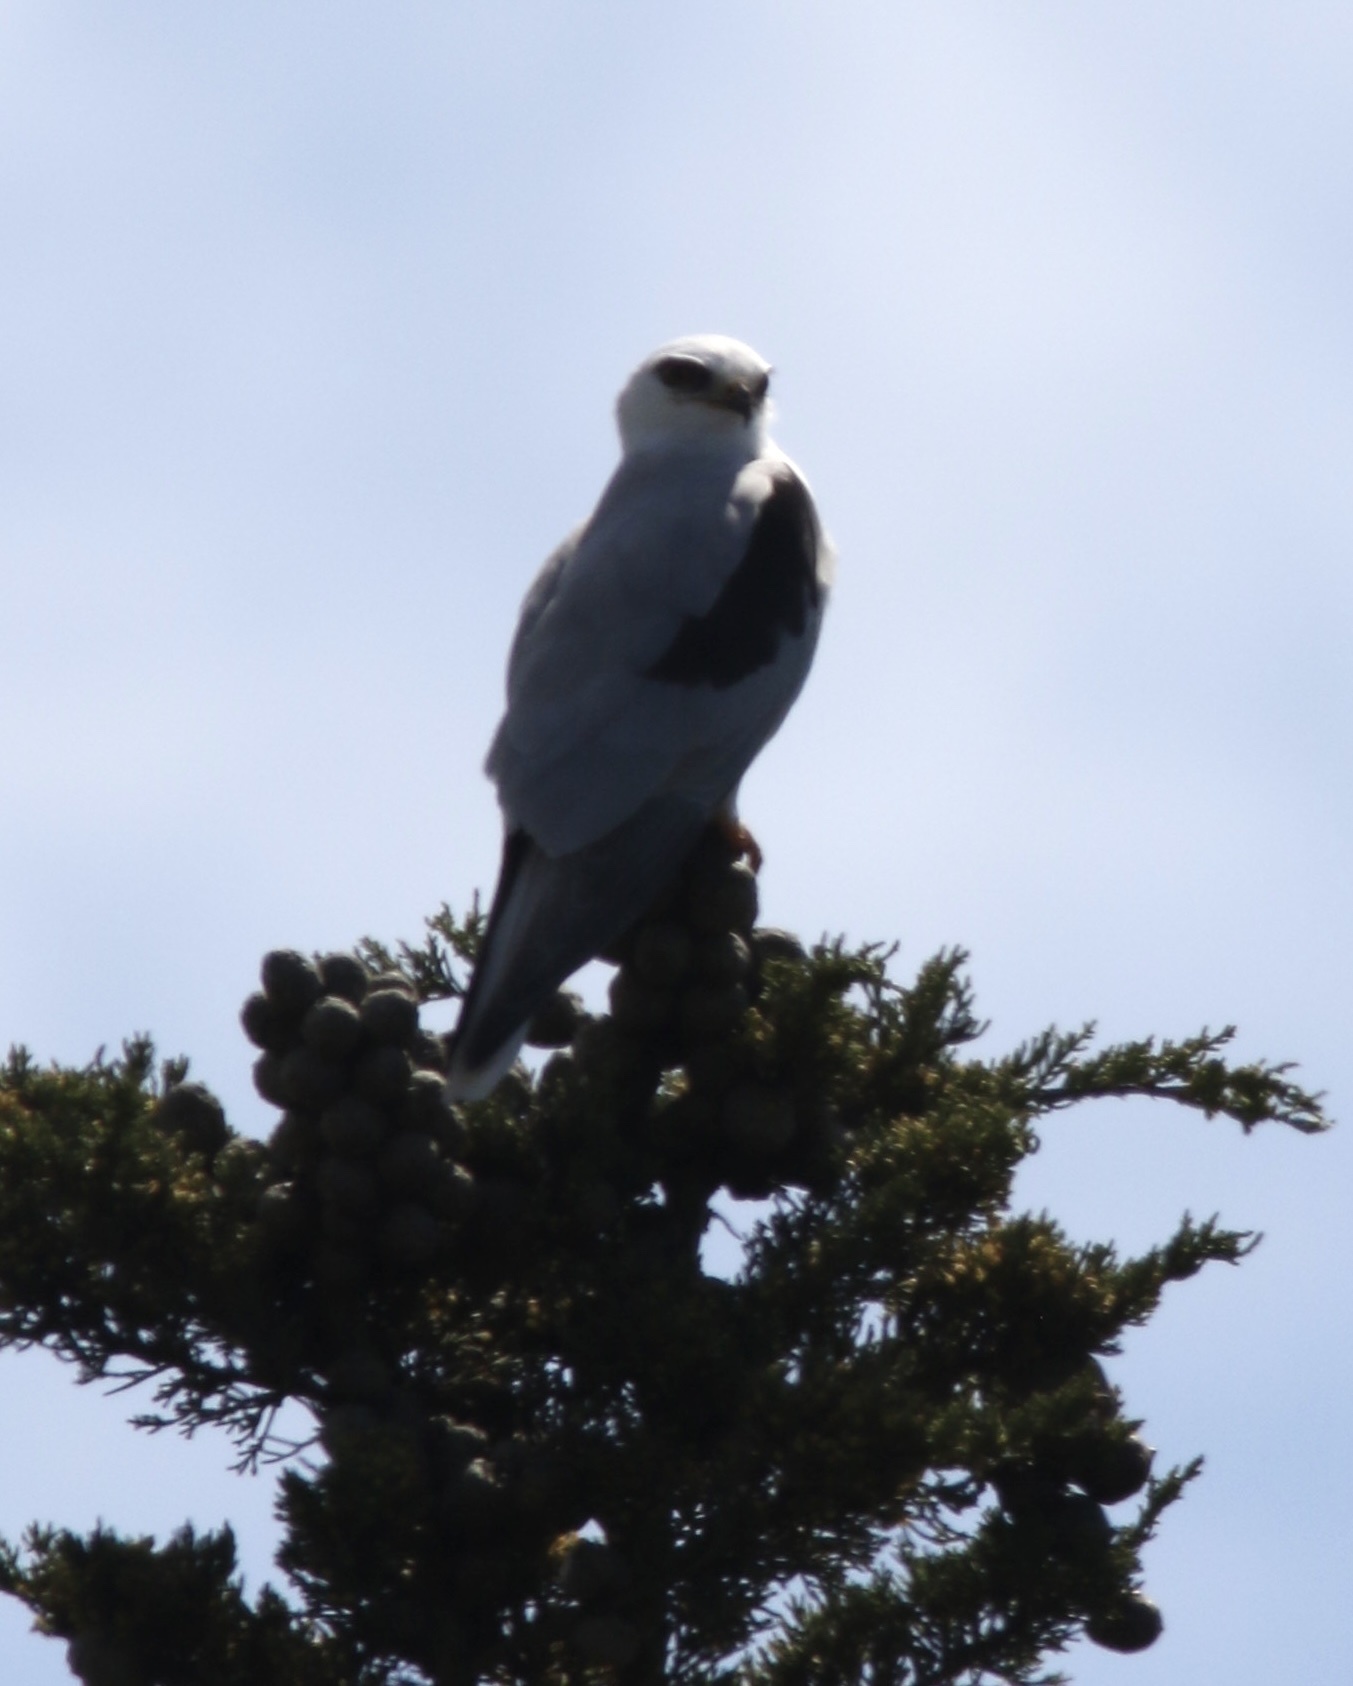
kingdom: Animalia
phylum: Chordata
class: Aves
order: Accipitriformes
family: Accipitridae
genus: Elanus
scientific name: Elanus leucurus
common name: White-tailed kite
